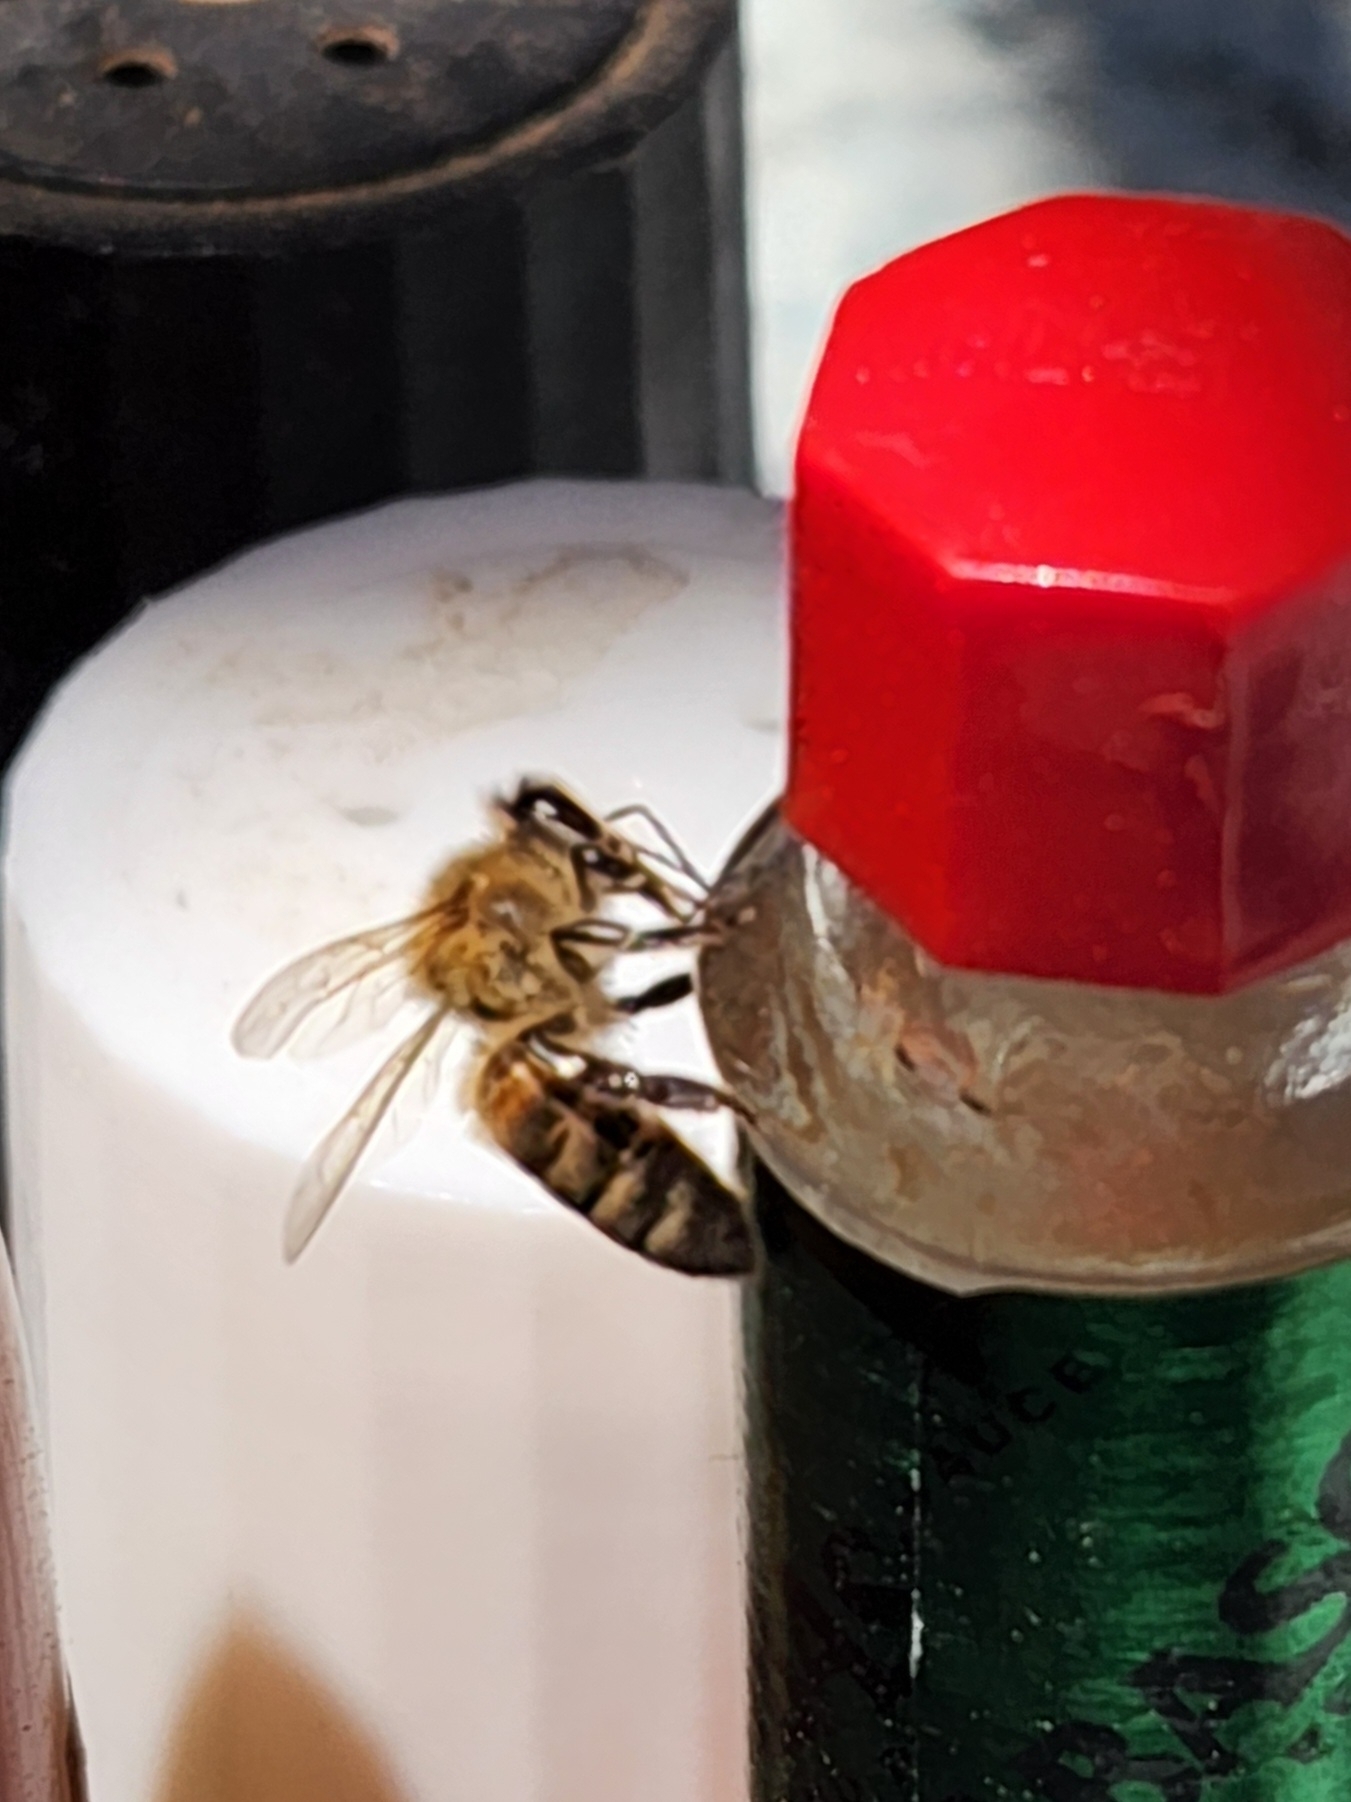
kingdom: Animalia
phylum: Arthropoda
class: Insecta
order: Hymenoptera
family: Apidae
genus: Apis
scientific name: Apis mellifera
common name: Honey bee
